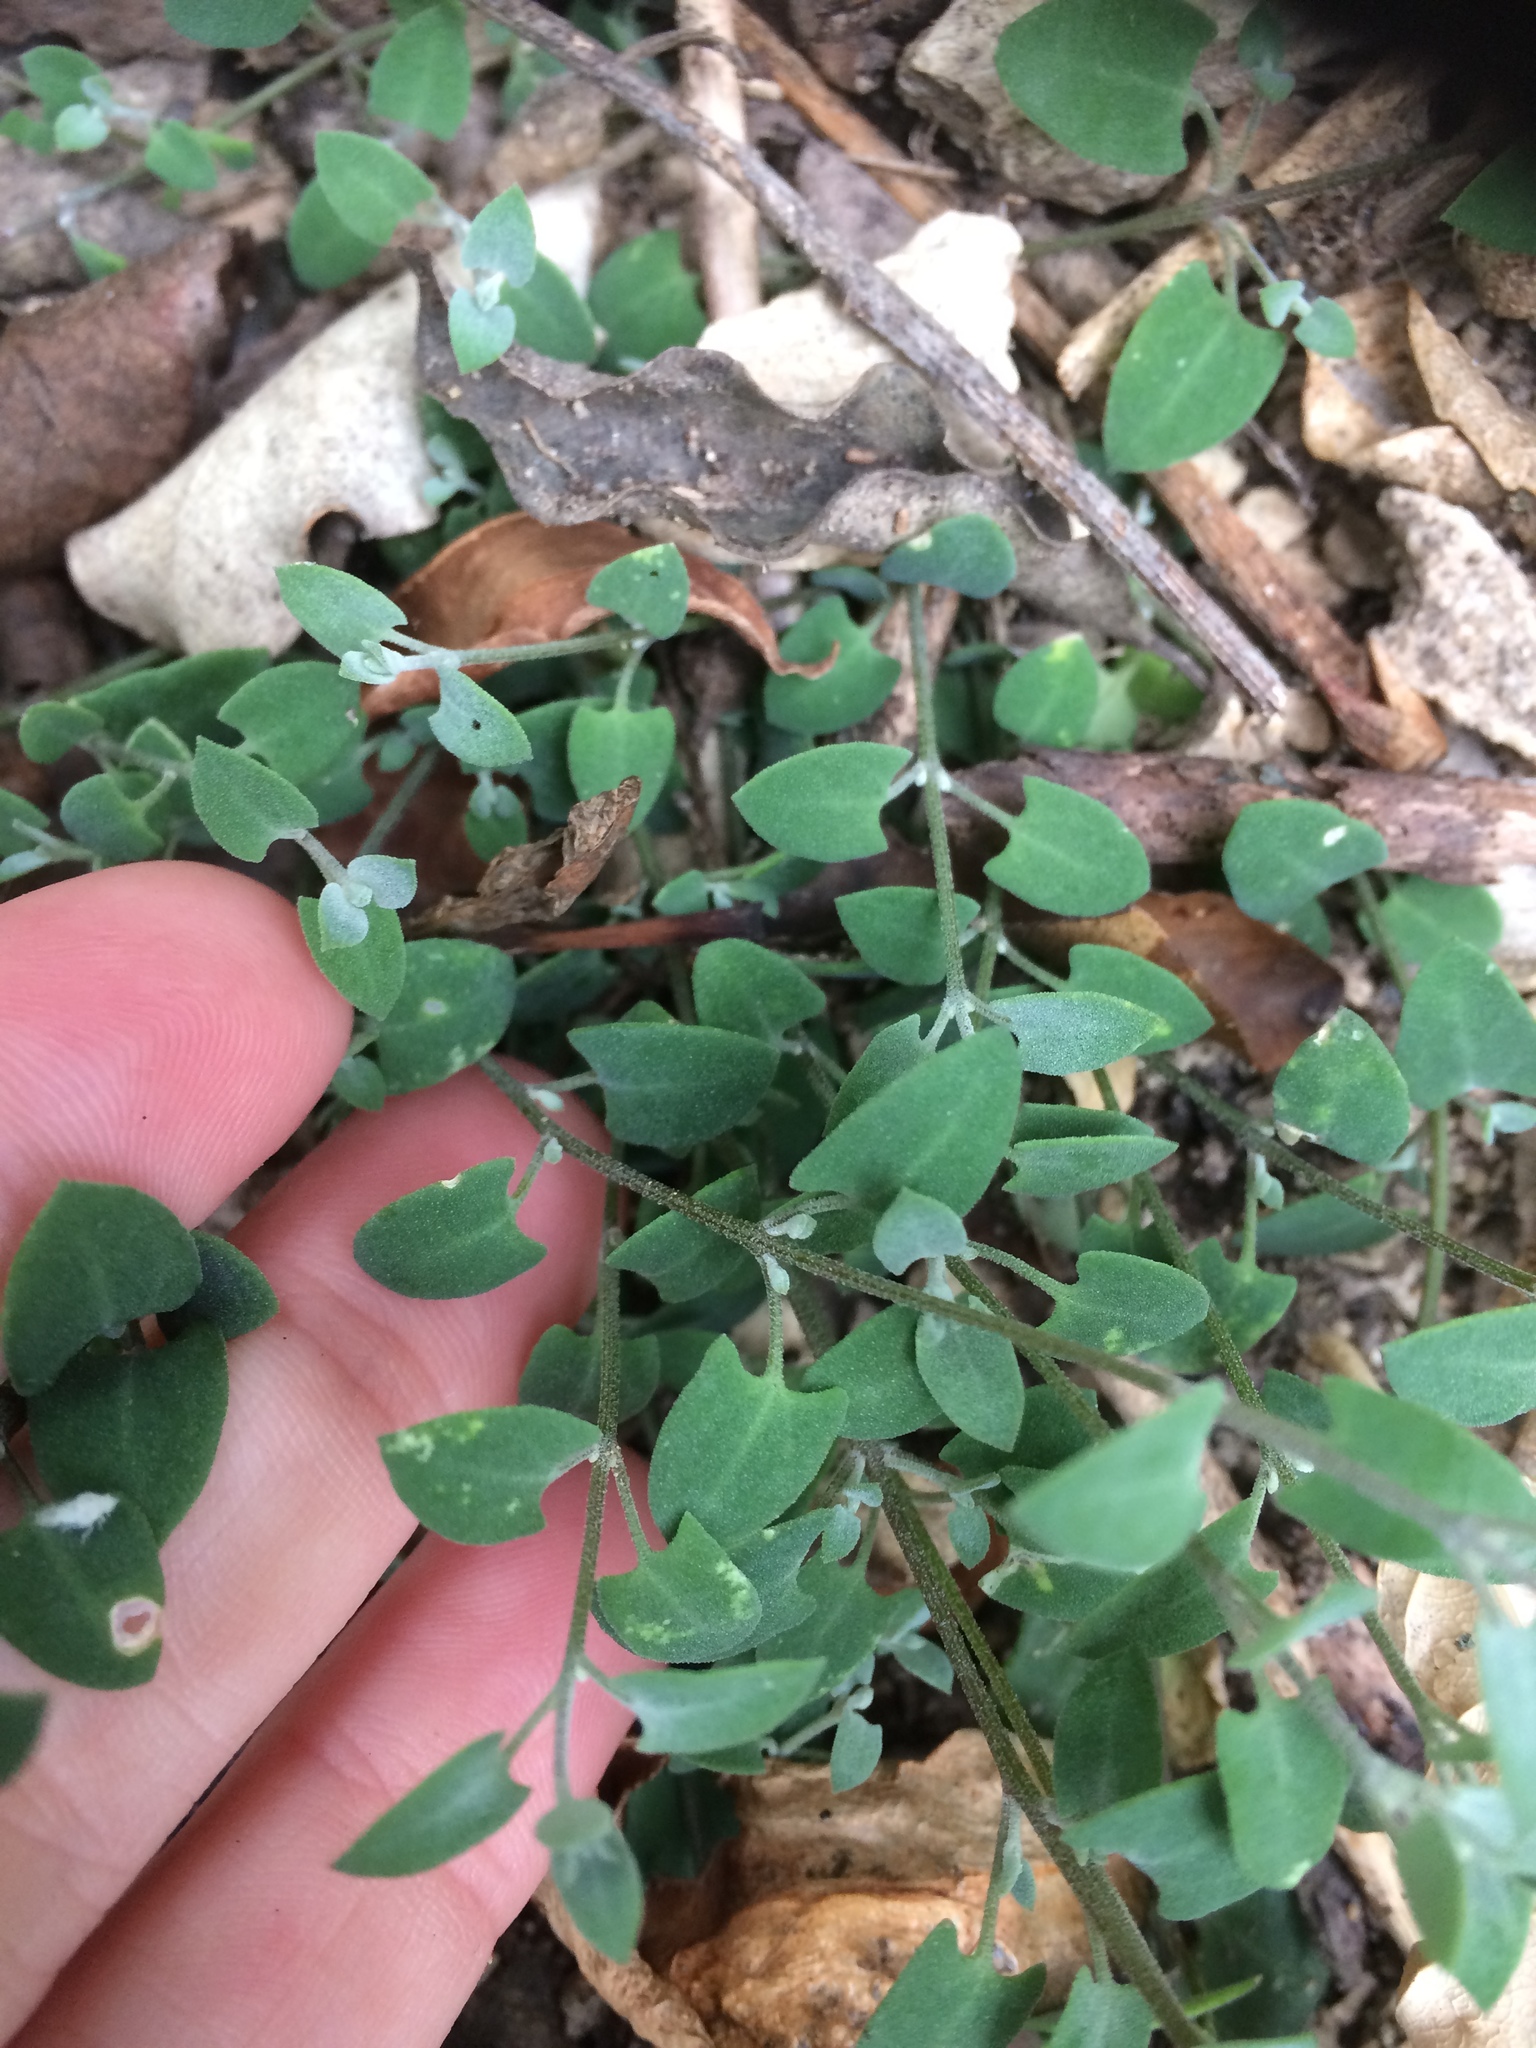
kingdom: Plantae
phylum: Tracheophyta
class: Magnoliopsida
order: Caryophyllales
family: Amaranthaceae
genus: Atriplex
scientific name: Atriplex prostrata
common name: Spear-leaved orache
